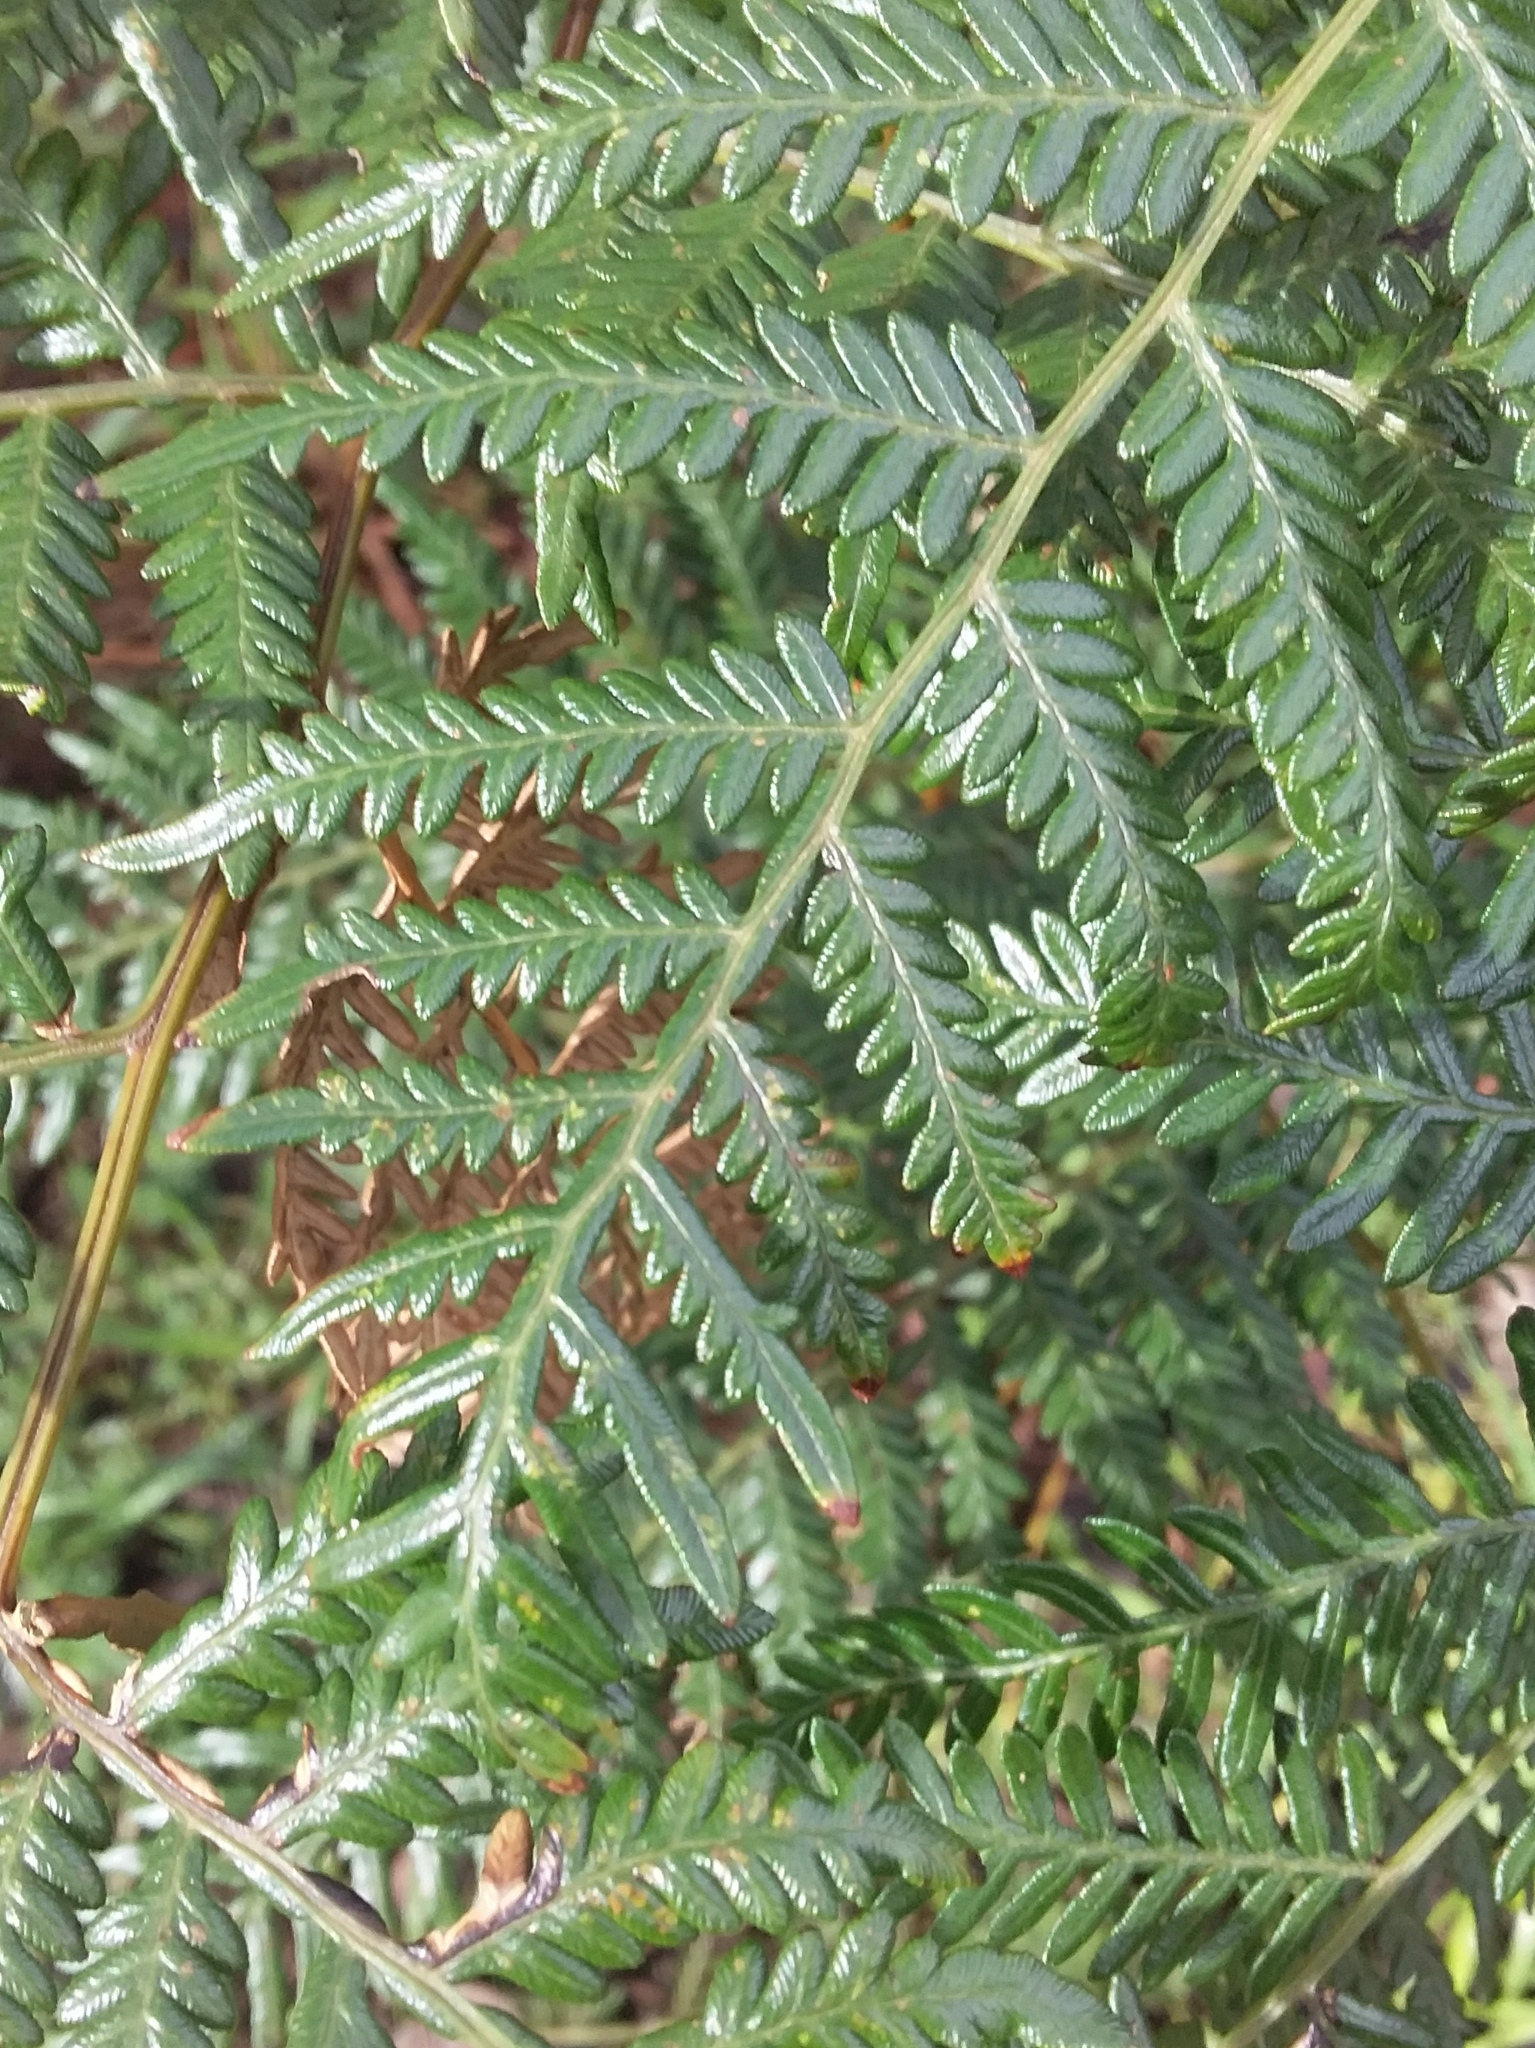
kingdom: Plantae
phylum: Tracheophyta
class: Polypodiopsida
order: Polypodiales
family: Dennstaedtiaceae
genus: Pteridium
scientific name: Pteridium esculentum
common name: Bracken fern
